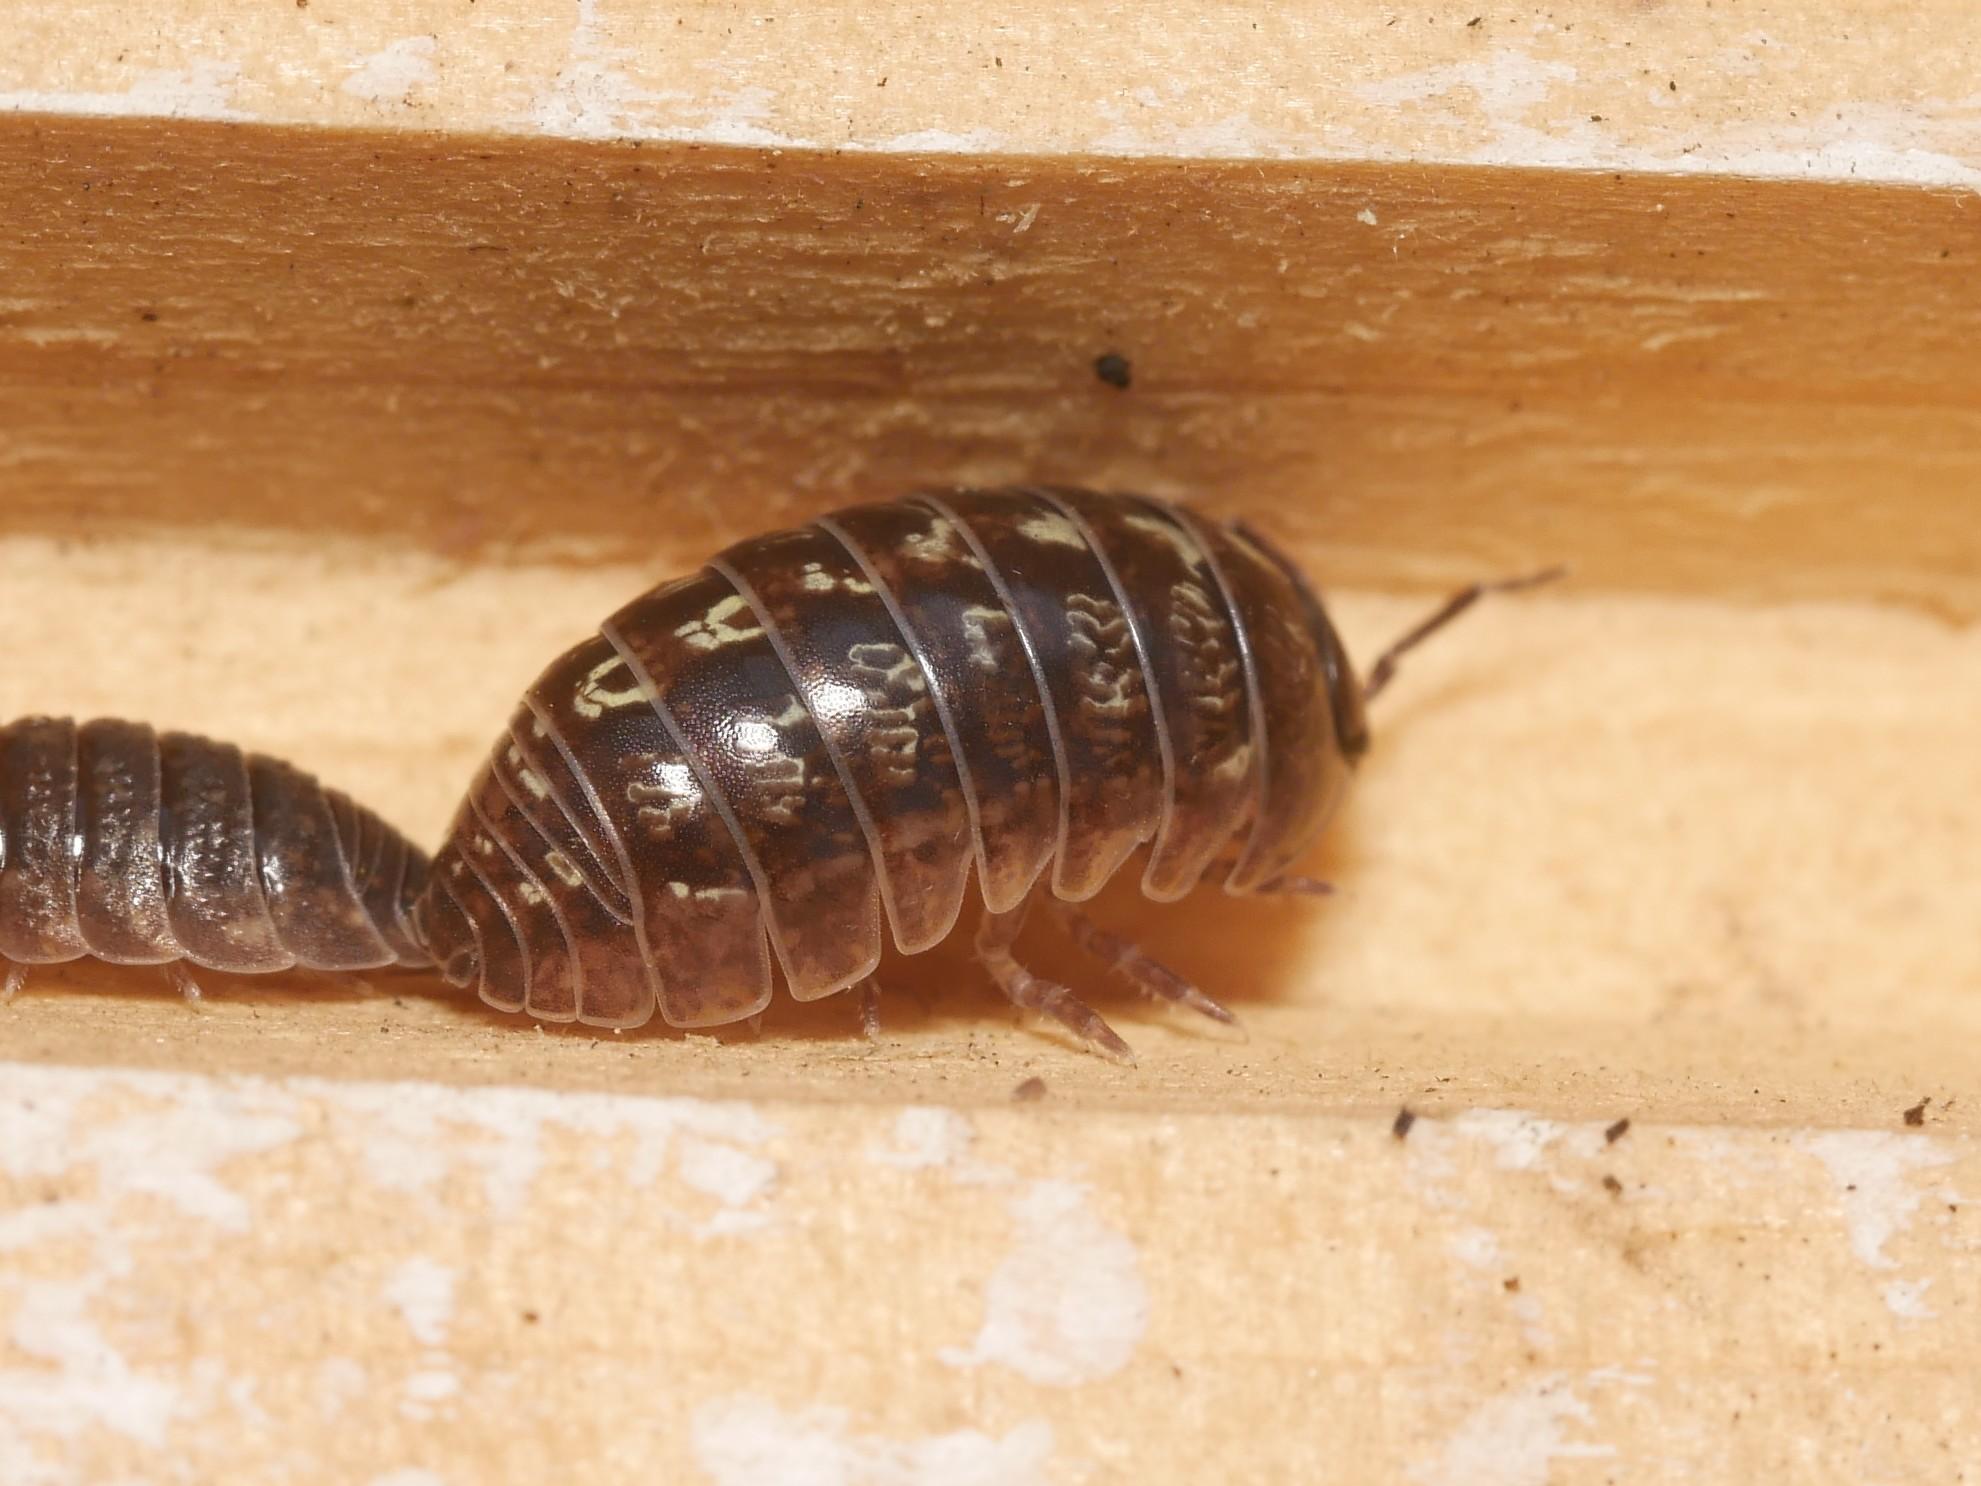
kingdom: Animalia
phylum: Arthropoda
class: Malacostraca
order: Isopoda
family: Armadillidiidae
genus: Armadillidium
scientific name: Armadillidium vulgare
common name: Common pill woodlouse
